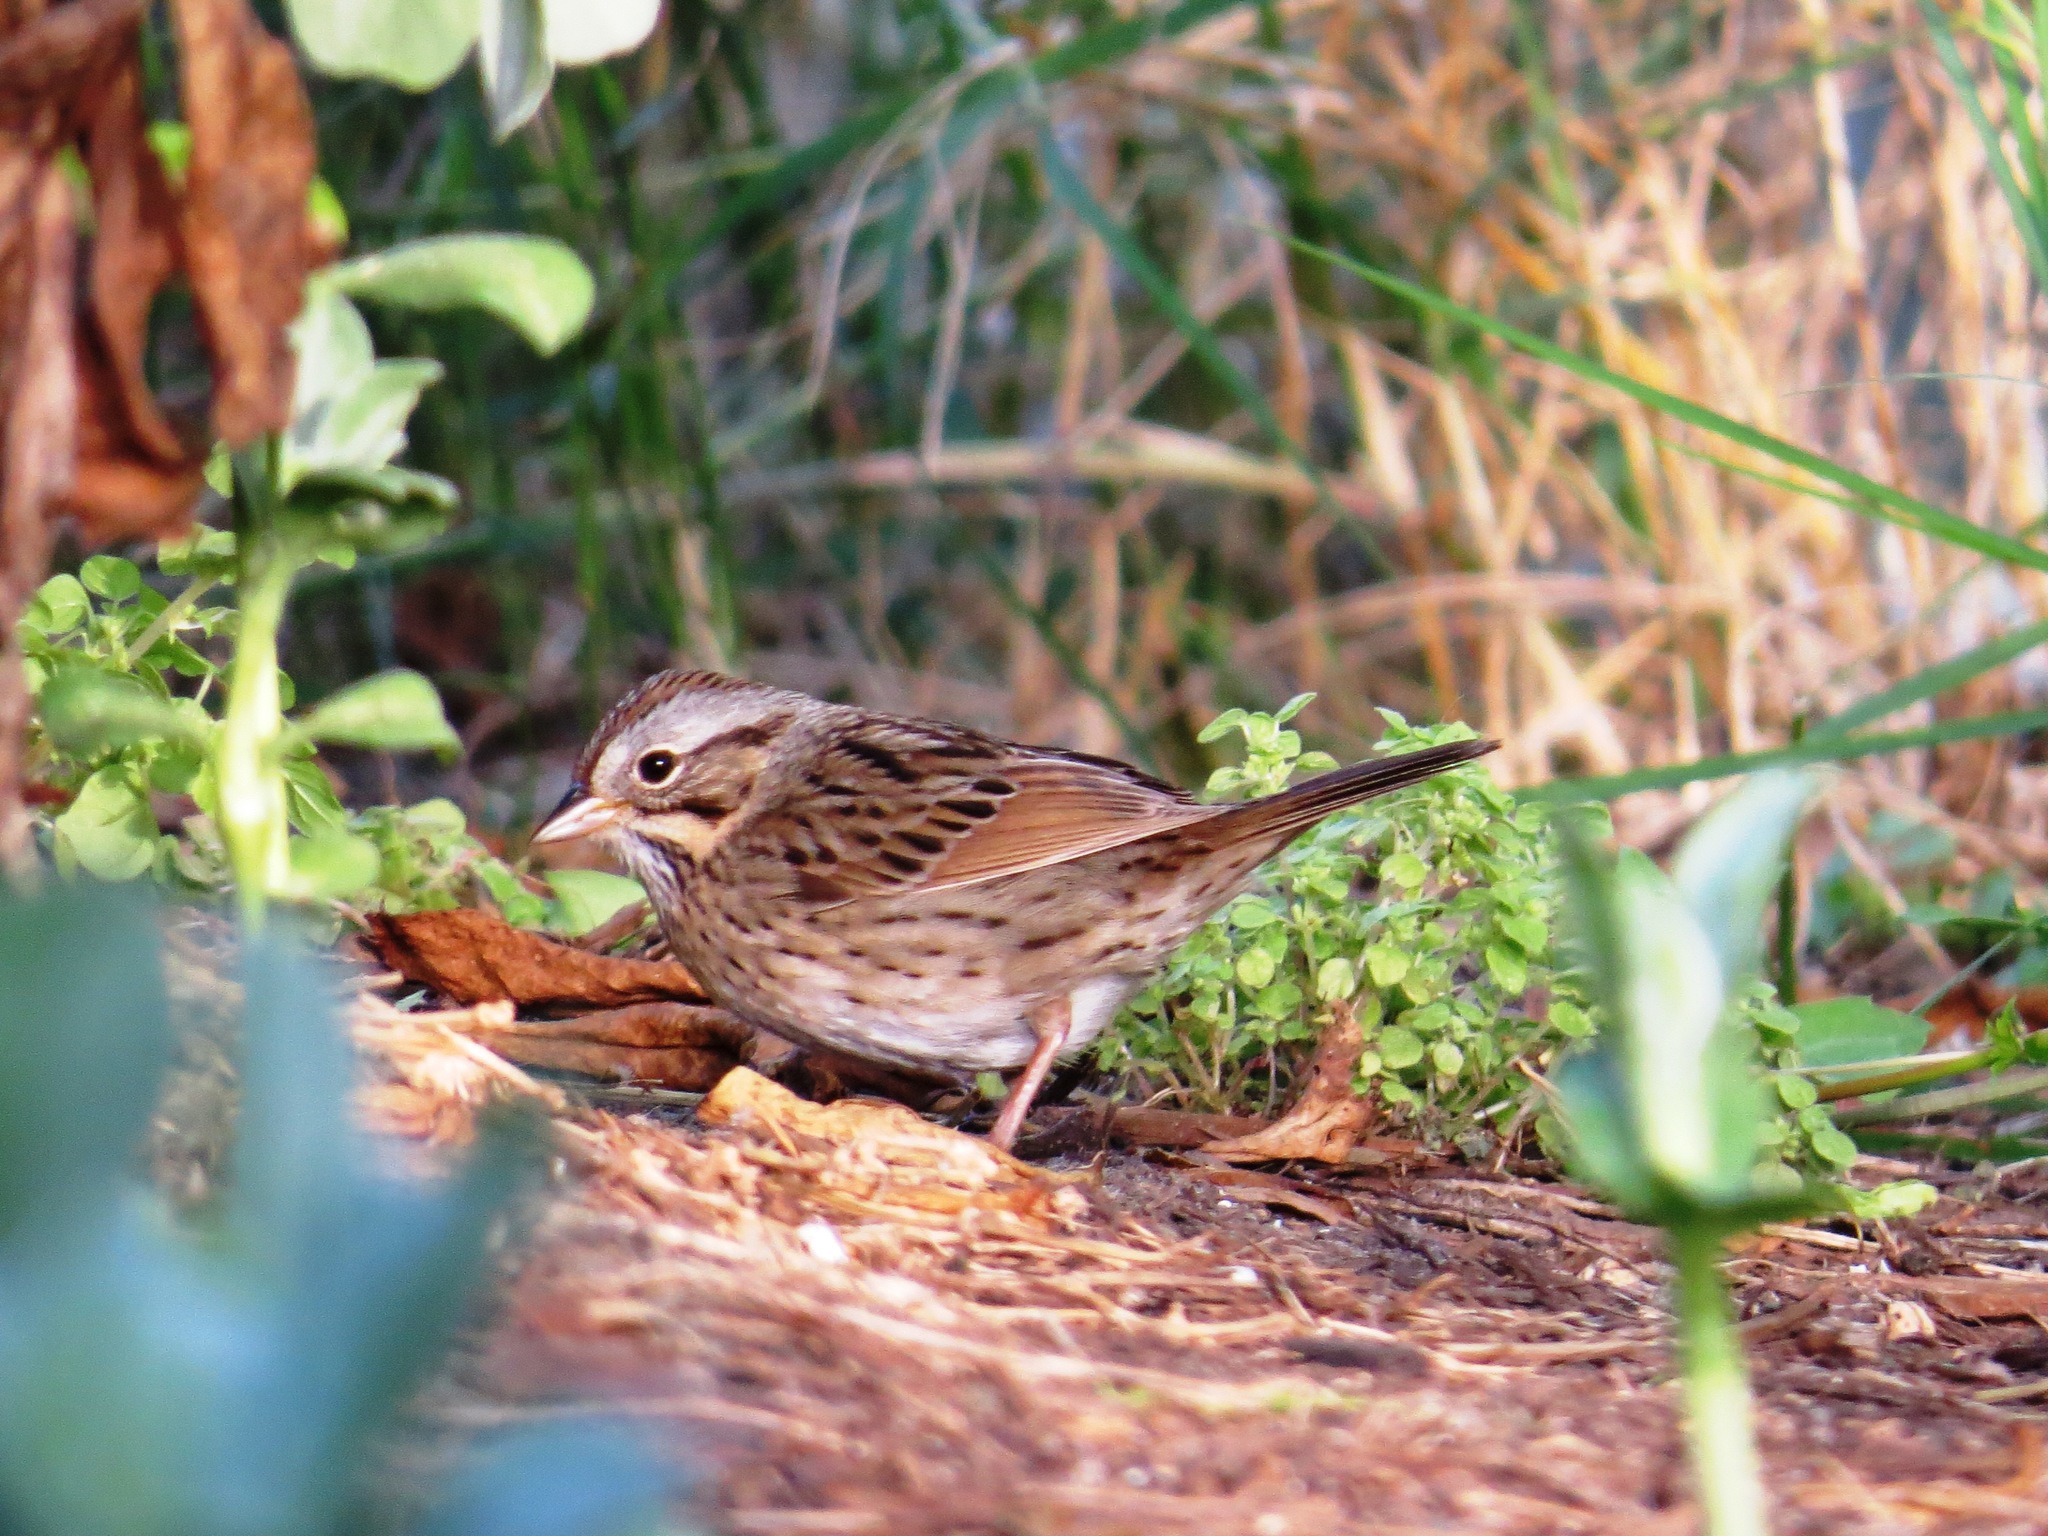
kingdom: Animalia
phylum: Chordata
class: Aves
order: Passeriformes
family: Passerellidae
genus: Melospiza
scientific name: Melospiza lincolnii
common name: Lincoln's sparrow
